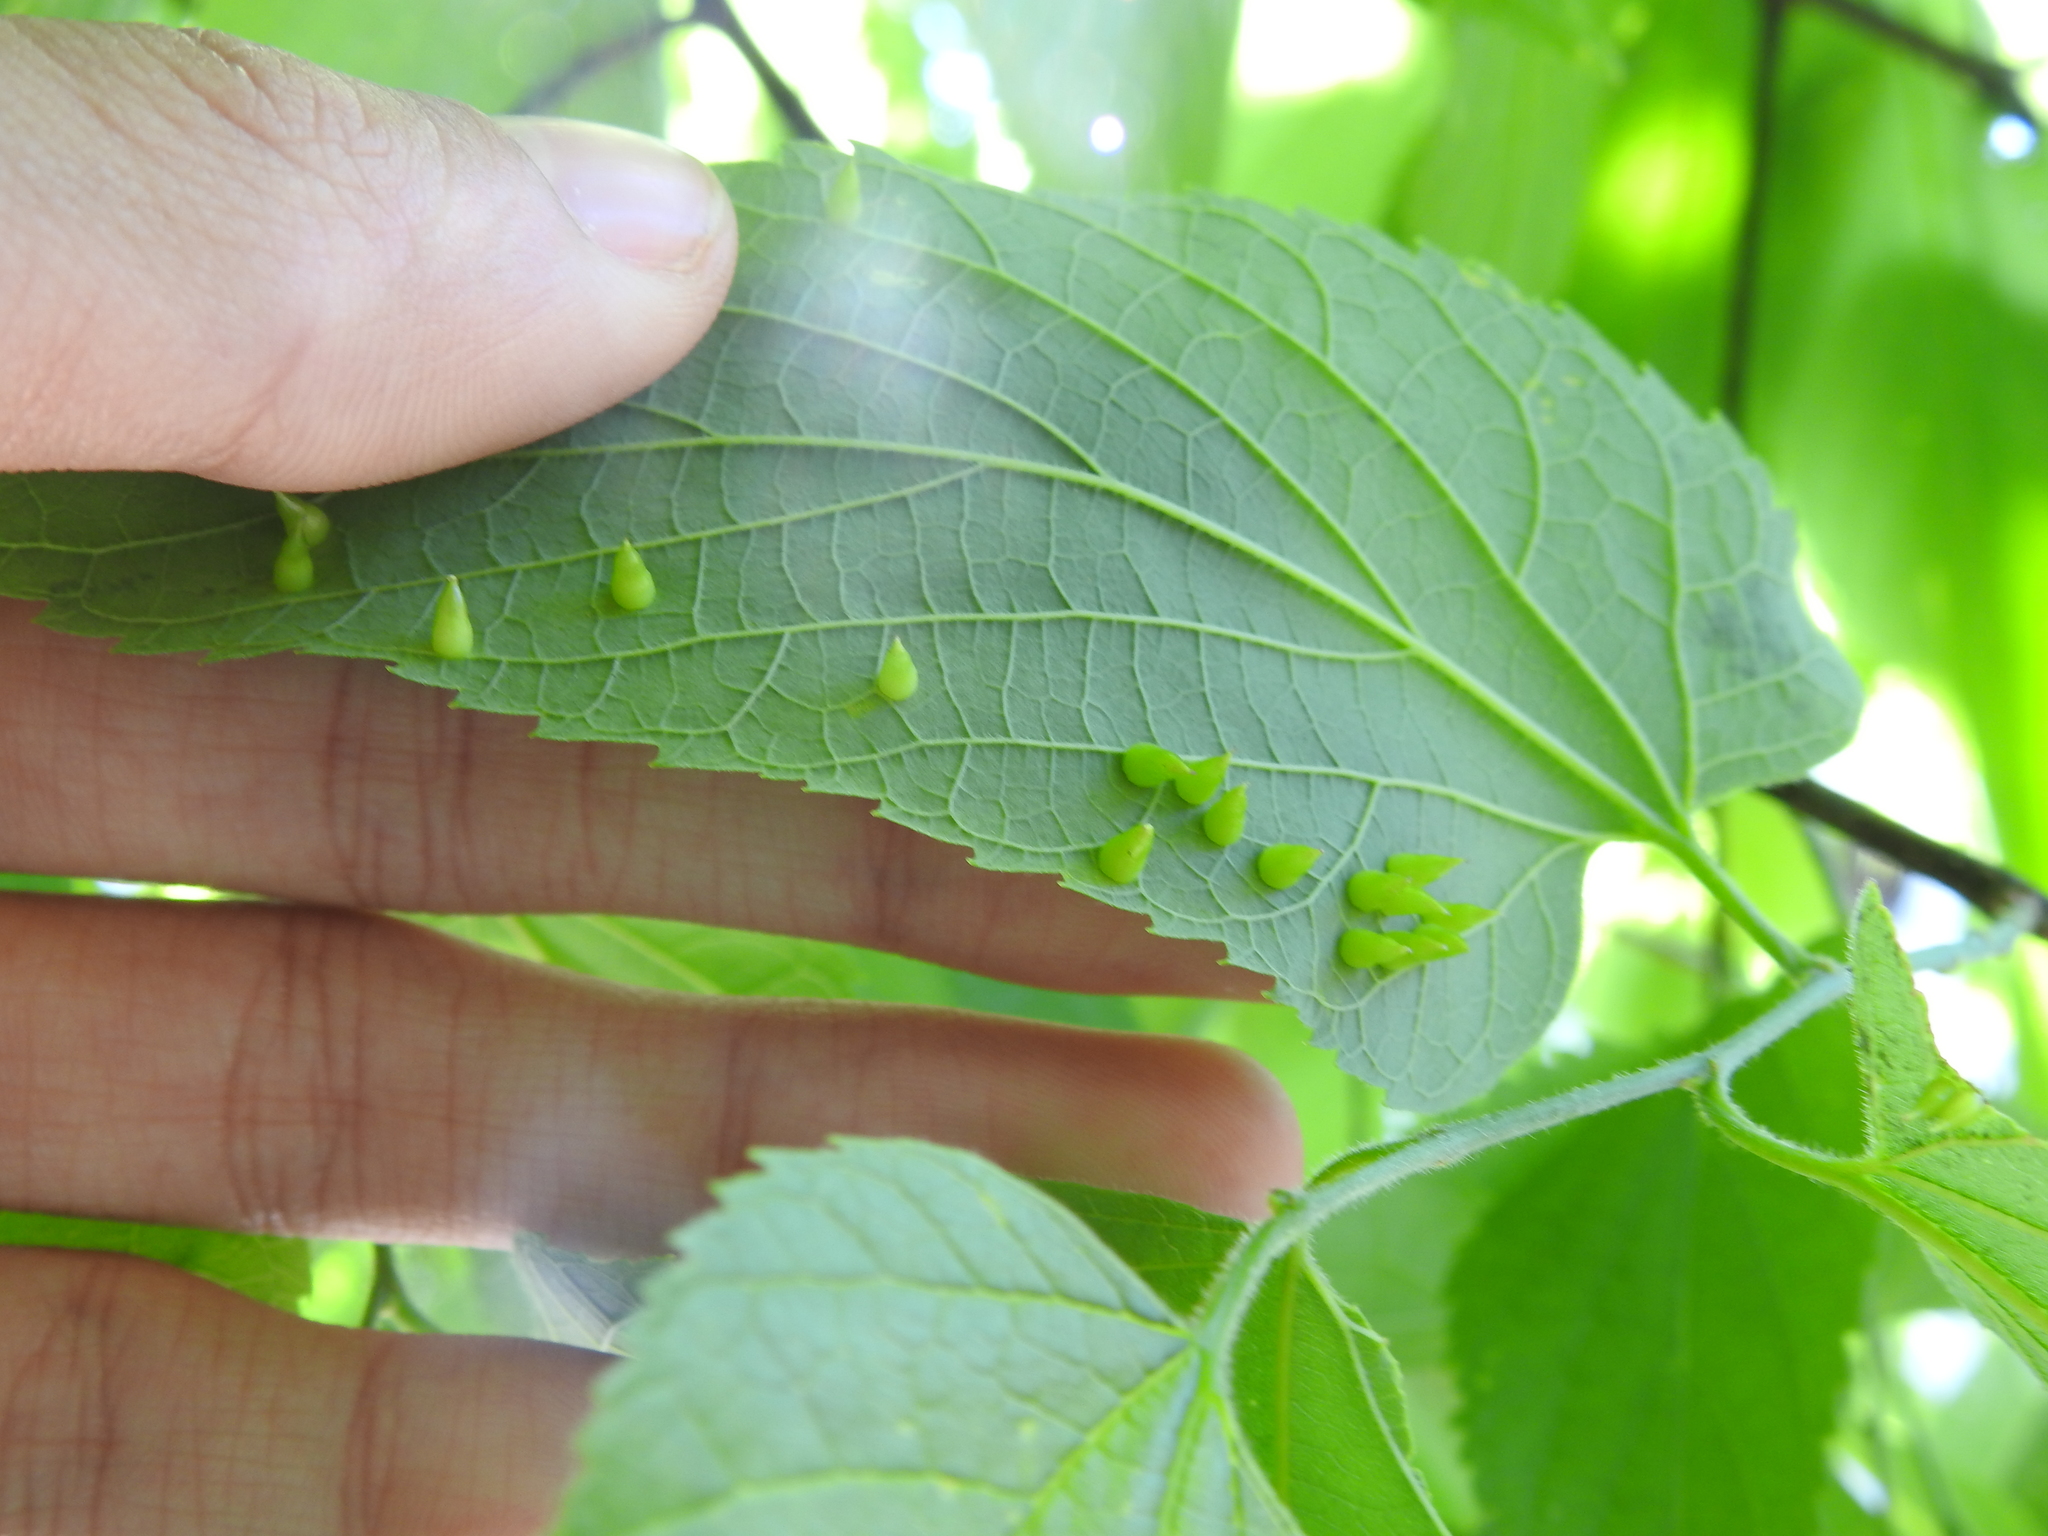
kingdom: Animalia
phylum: Arthropoda
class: Insecta
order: Diptera
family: Cecidomyiidae
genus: Celticecis
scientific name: Celticecis conica
